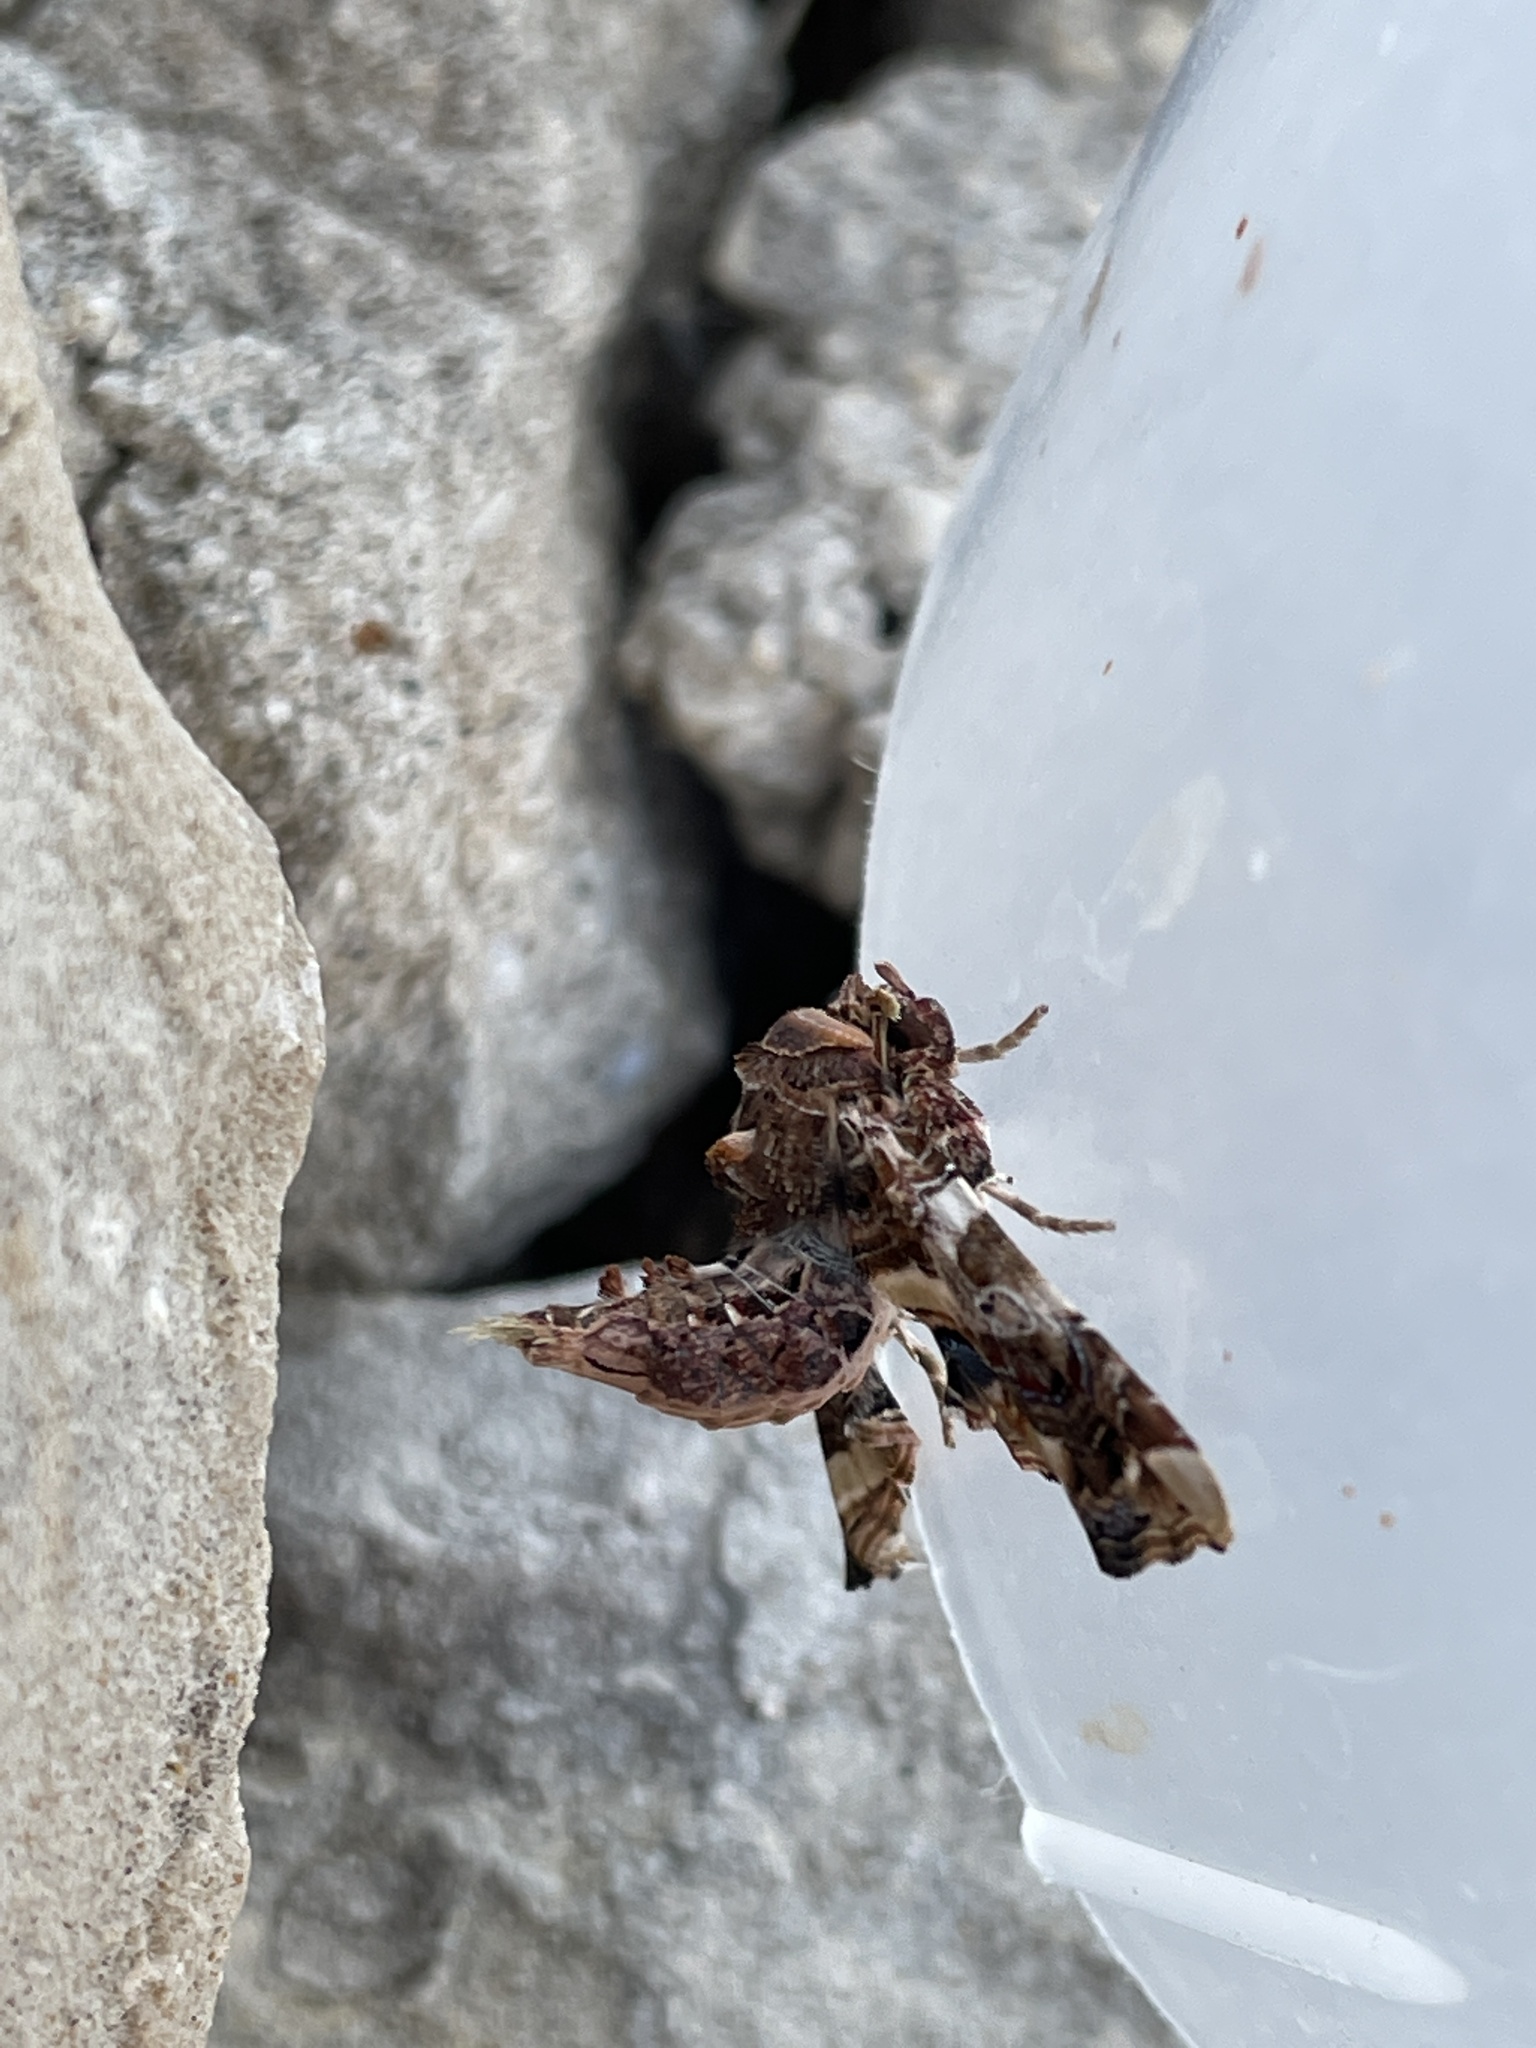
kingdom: Animalia
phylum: Arthropoda
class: Insecta
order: Lepidoptera
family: Euteliidae
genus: Eutelia
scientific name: Eutelia adulatrix
